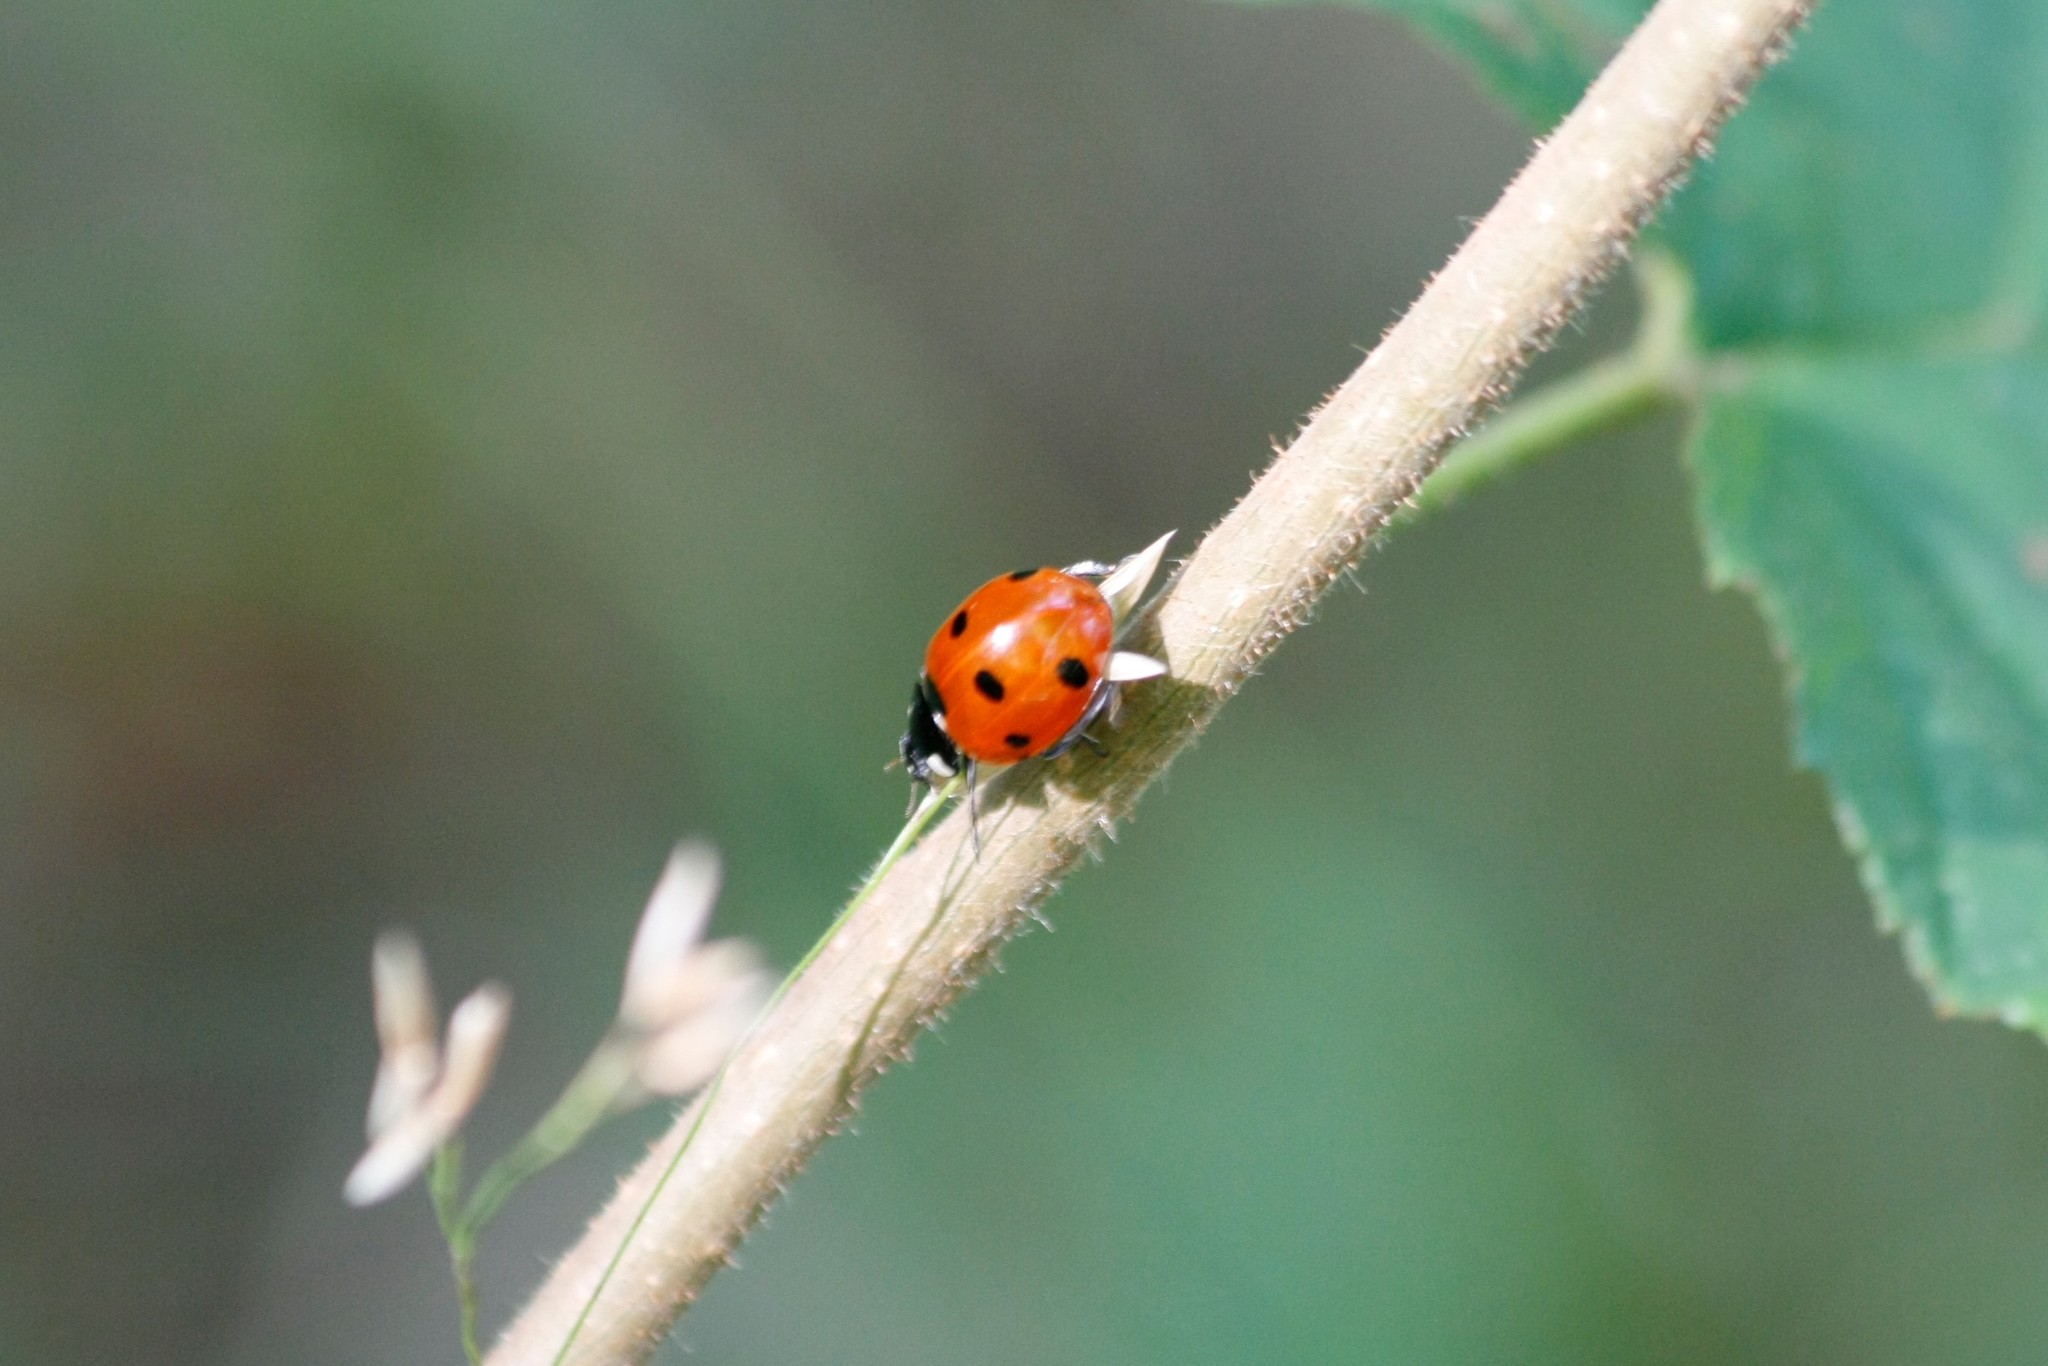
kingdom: Animalia
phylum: Arthropoda
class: Insecta
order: Coleoptera
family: Coccinellidae
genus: Coccinella
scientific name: Coccinella septempunctata
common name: Sevenspotted lady beetle
